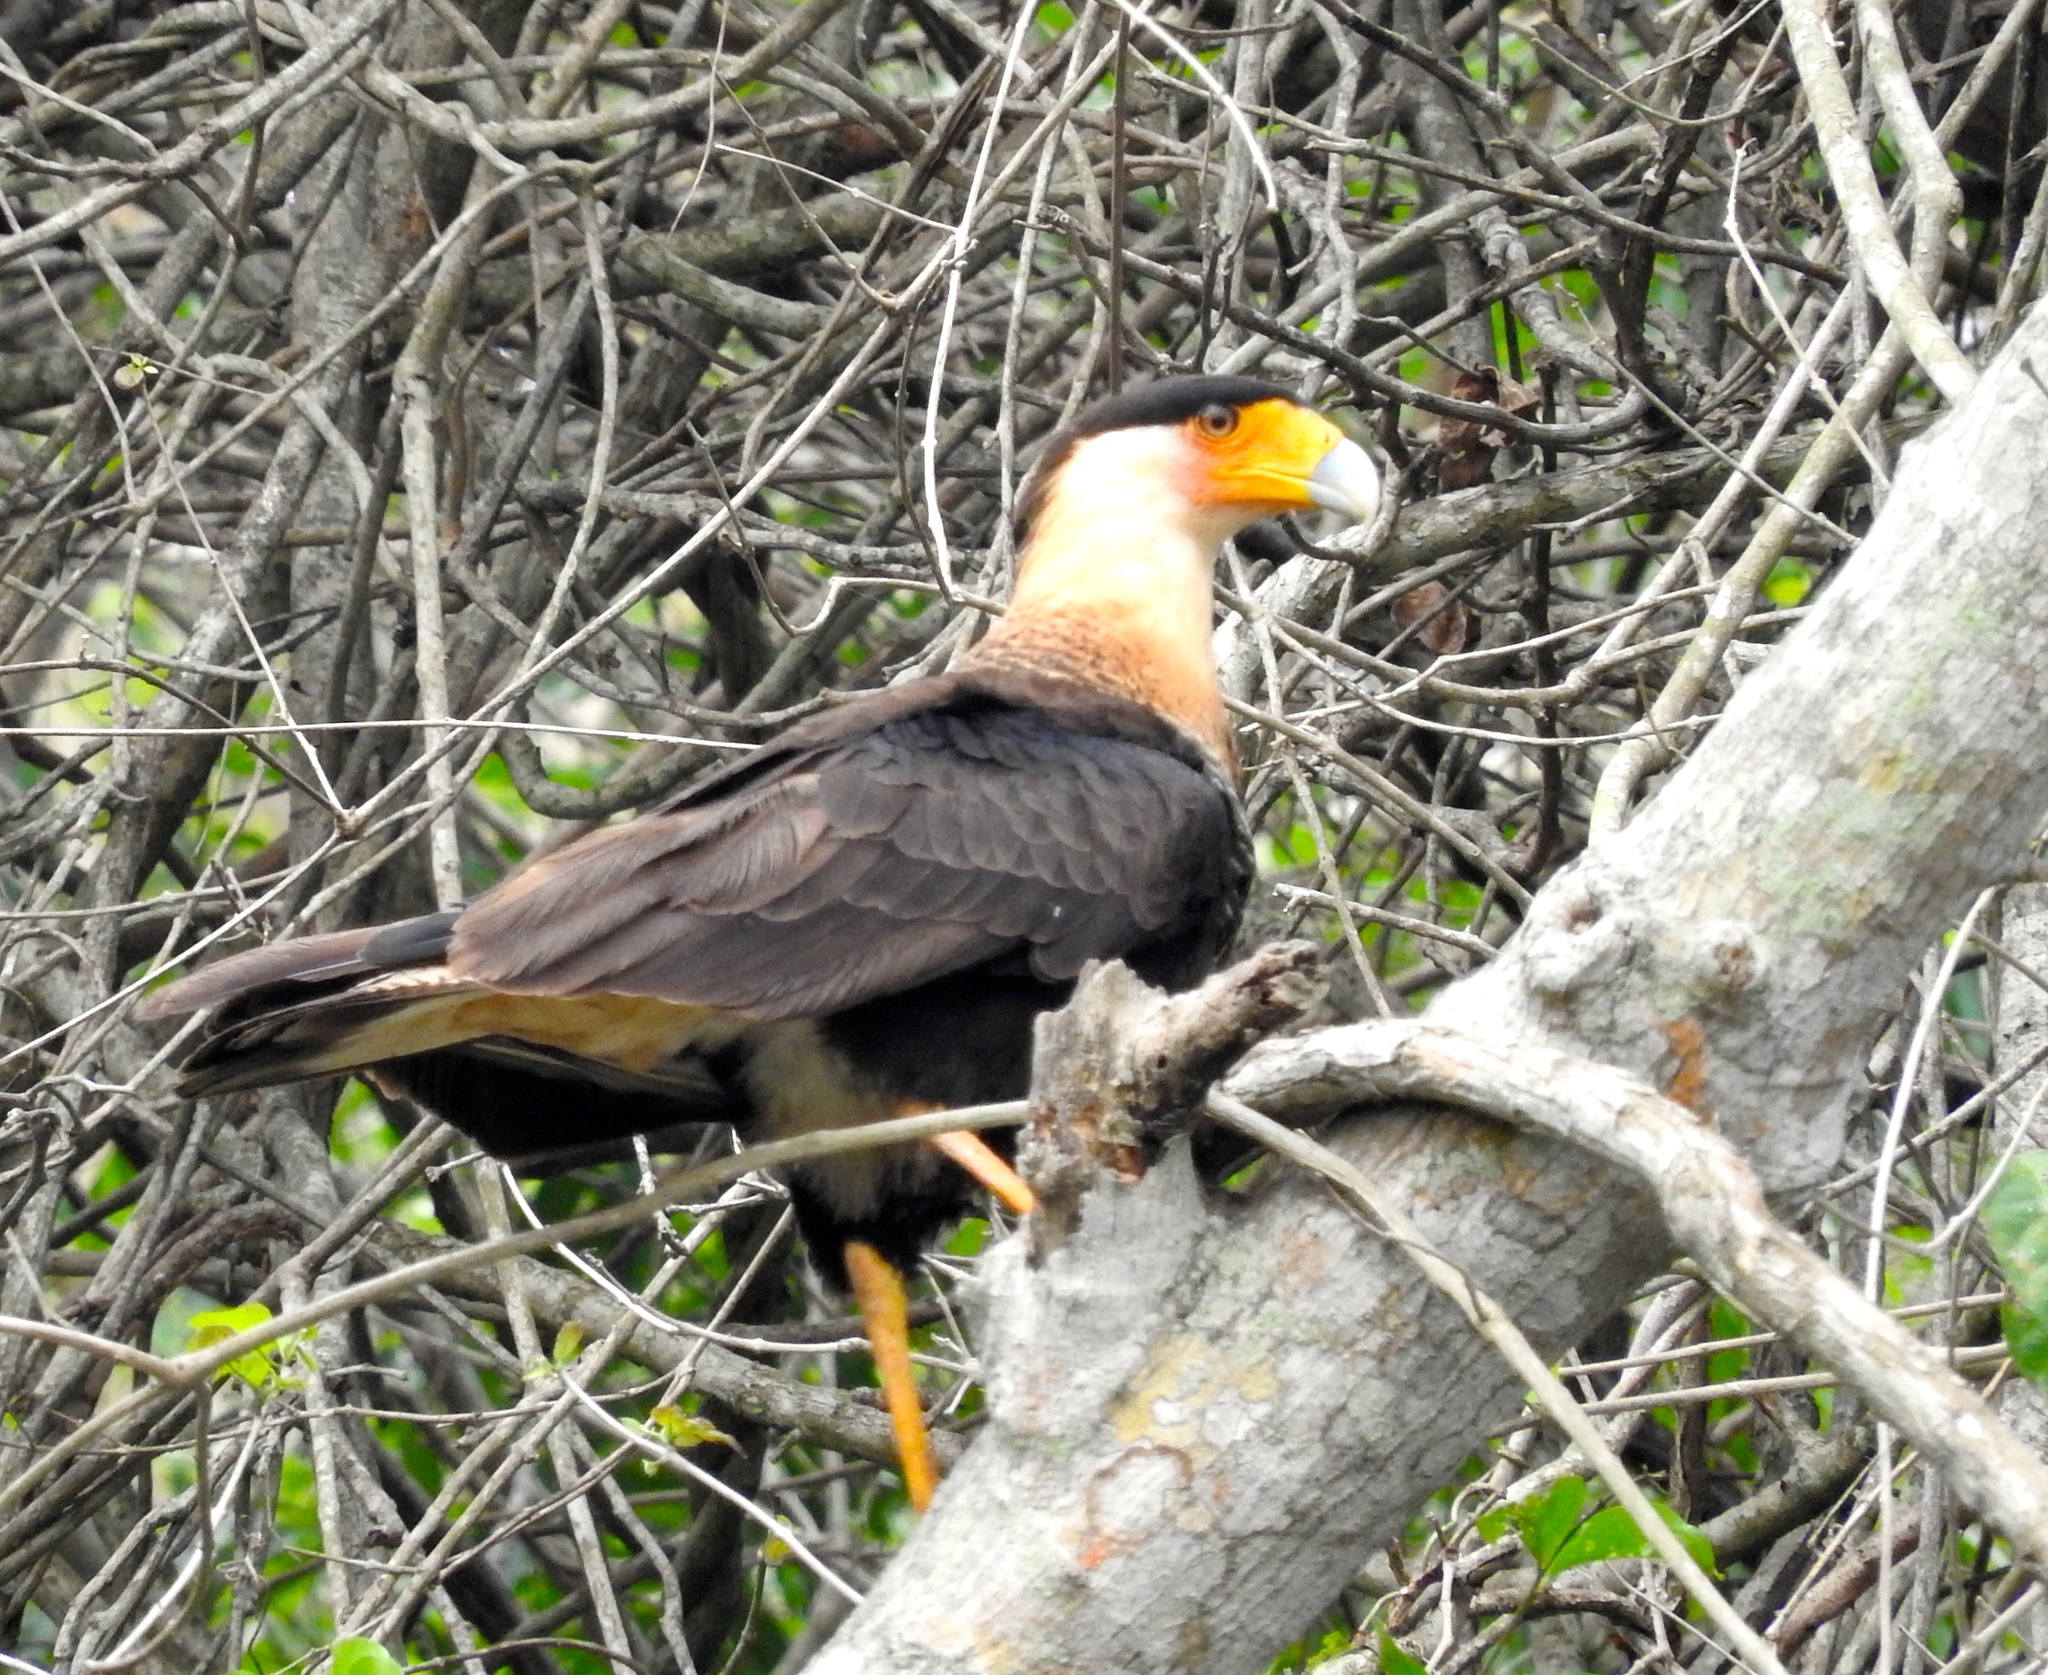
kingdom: Animalia
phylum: Chordata
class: Aves
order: Falconiformes
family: Falconidae
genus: Caracara
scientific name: Caracara plancus
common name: Southern caracara
